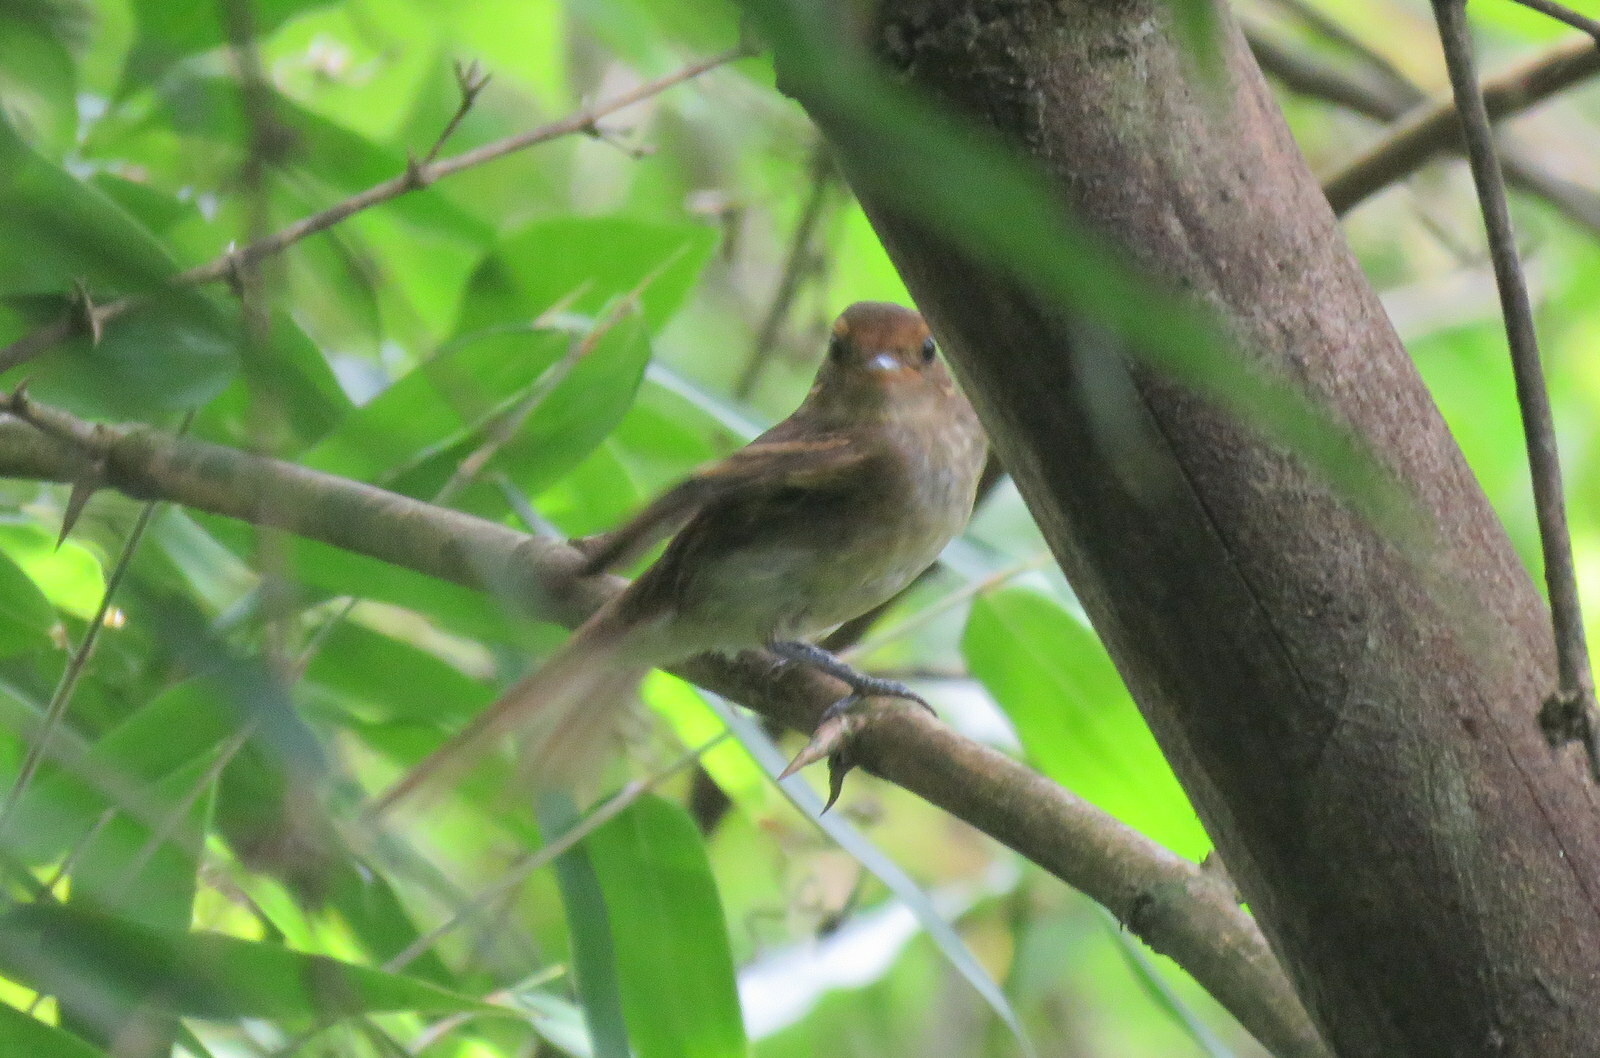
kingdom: Animalia
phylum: Chordata
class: Aves
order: Passeriformes
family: Tyrannidae
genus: Lathrotriccus
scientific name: Lathrotriccus euleri
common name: Euler's flycatcher
